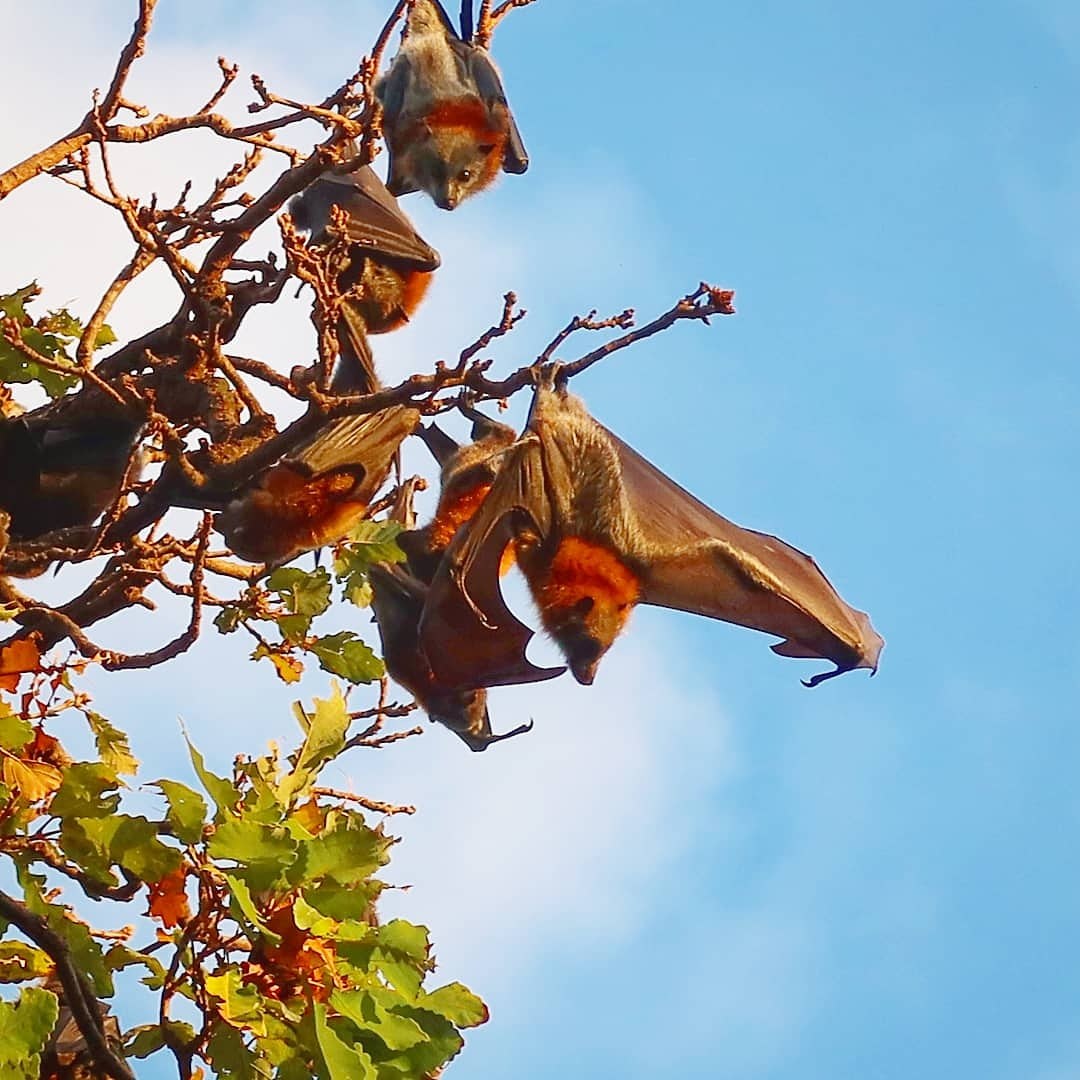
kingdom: Animalia
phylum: Chordata
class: Mammalia
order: Chiroptera
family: Pteropodidae
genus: Pteropus
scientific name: Pteropus poliocephalus
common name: Gray-headed flying fox
